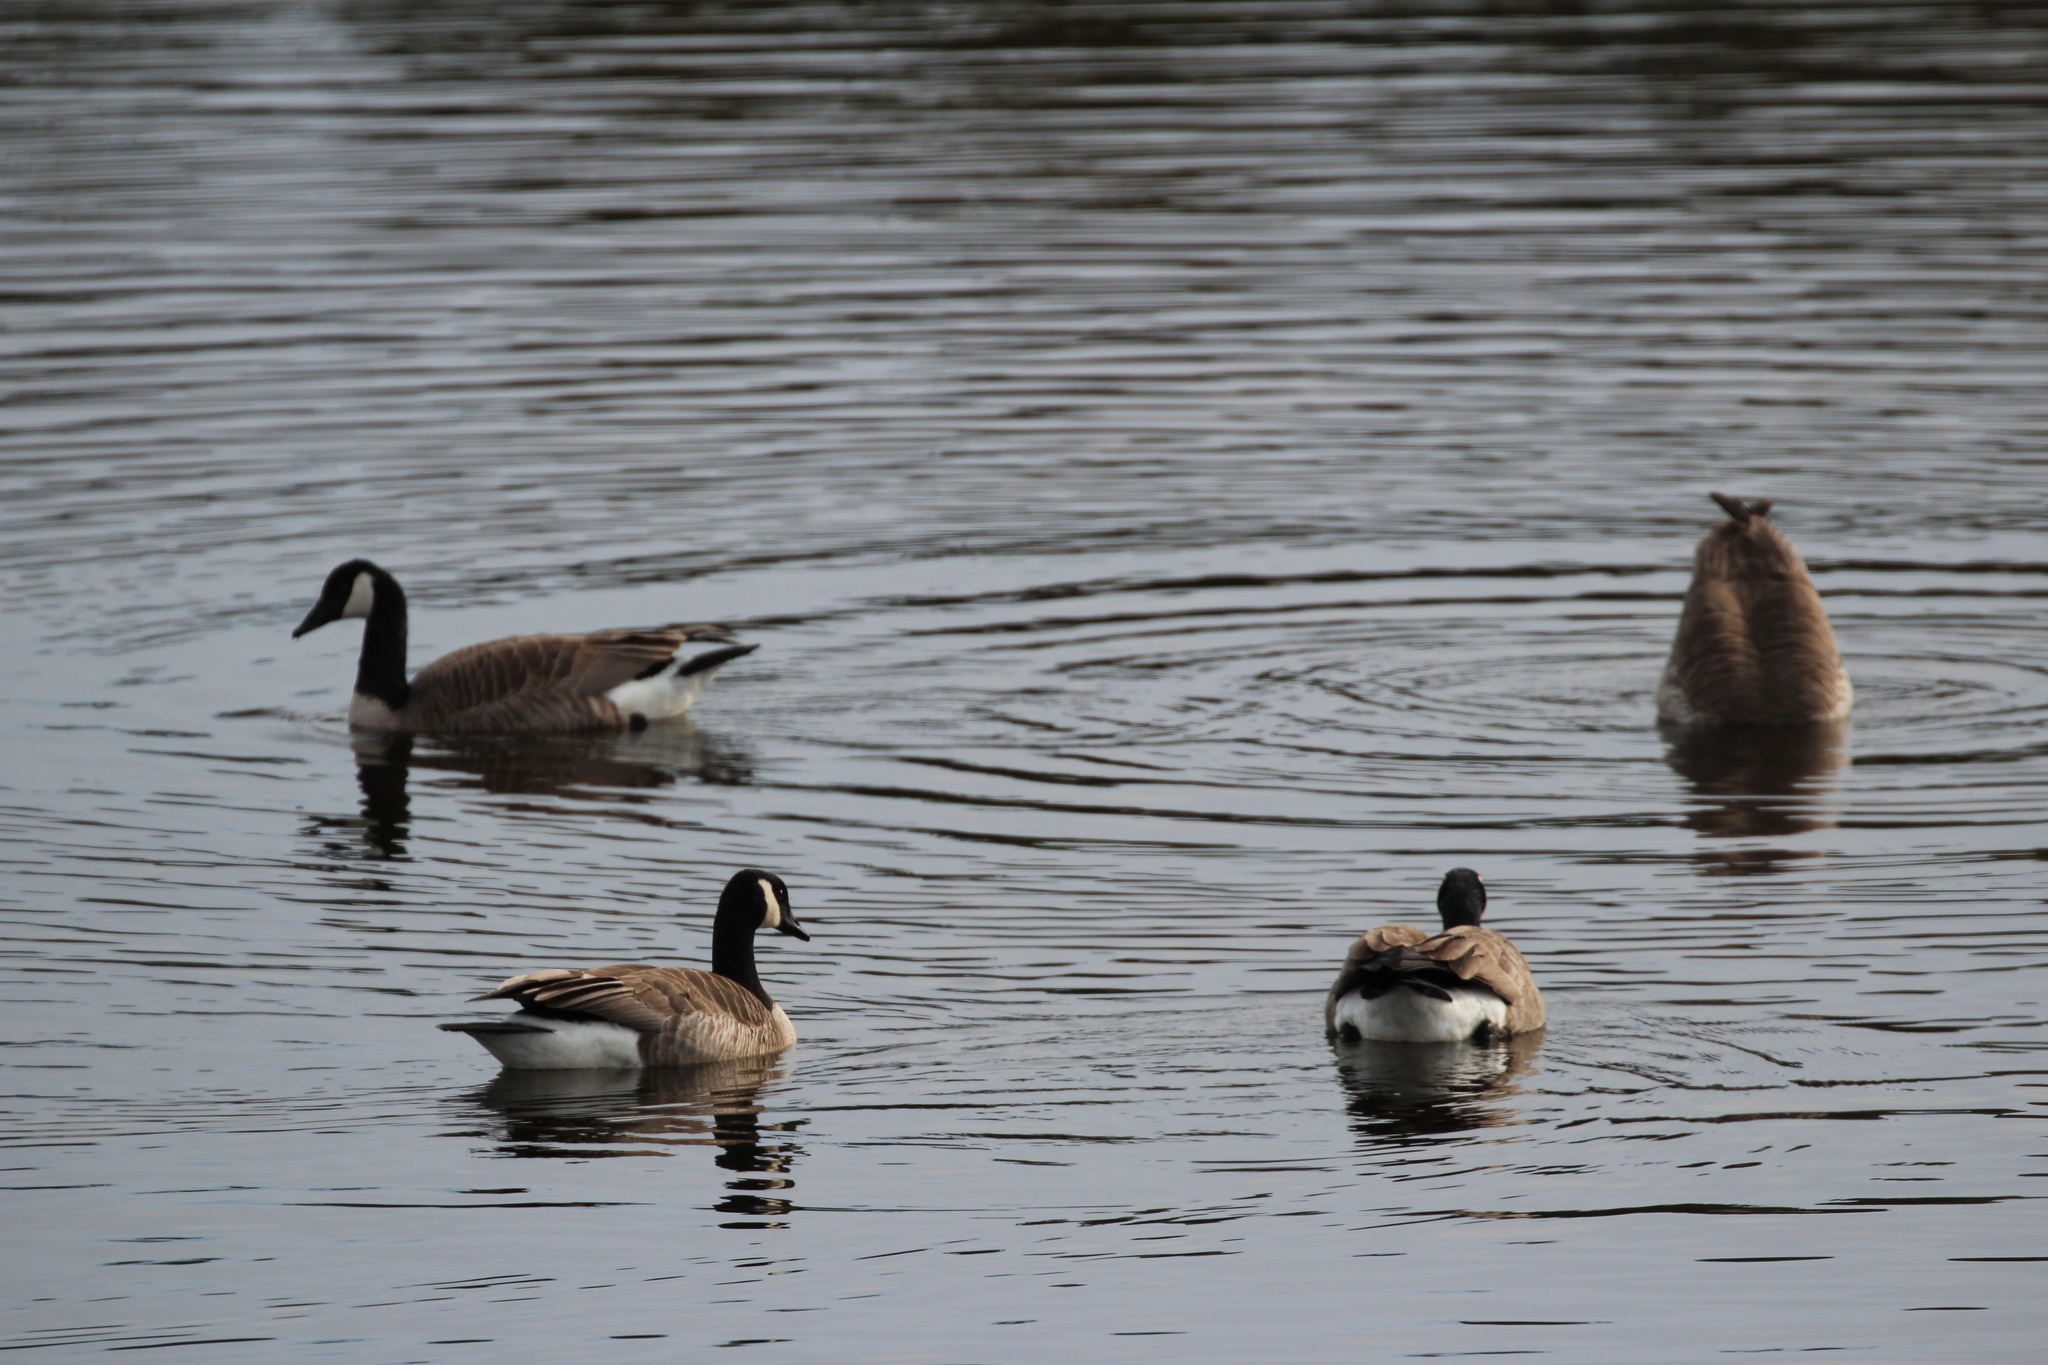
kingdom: Animalia
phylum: Chordata
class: Aves
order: Anseriformes
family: Anatidae
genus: Branta
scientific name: Branta canadensis
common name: Canada goose
